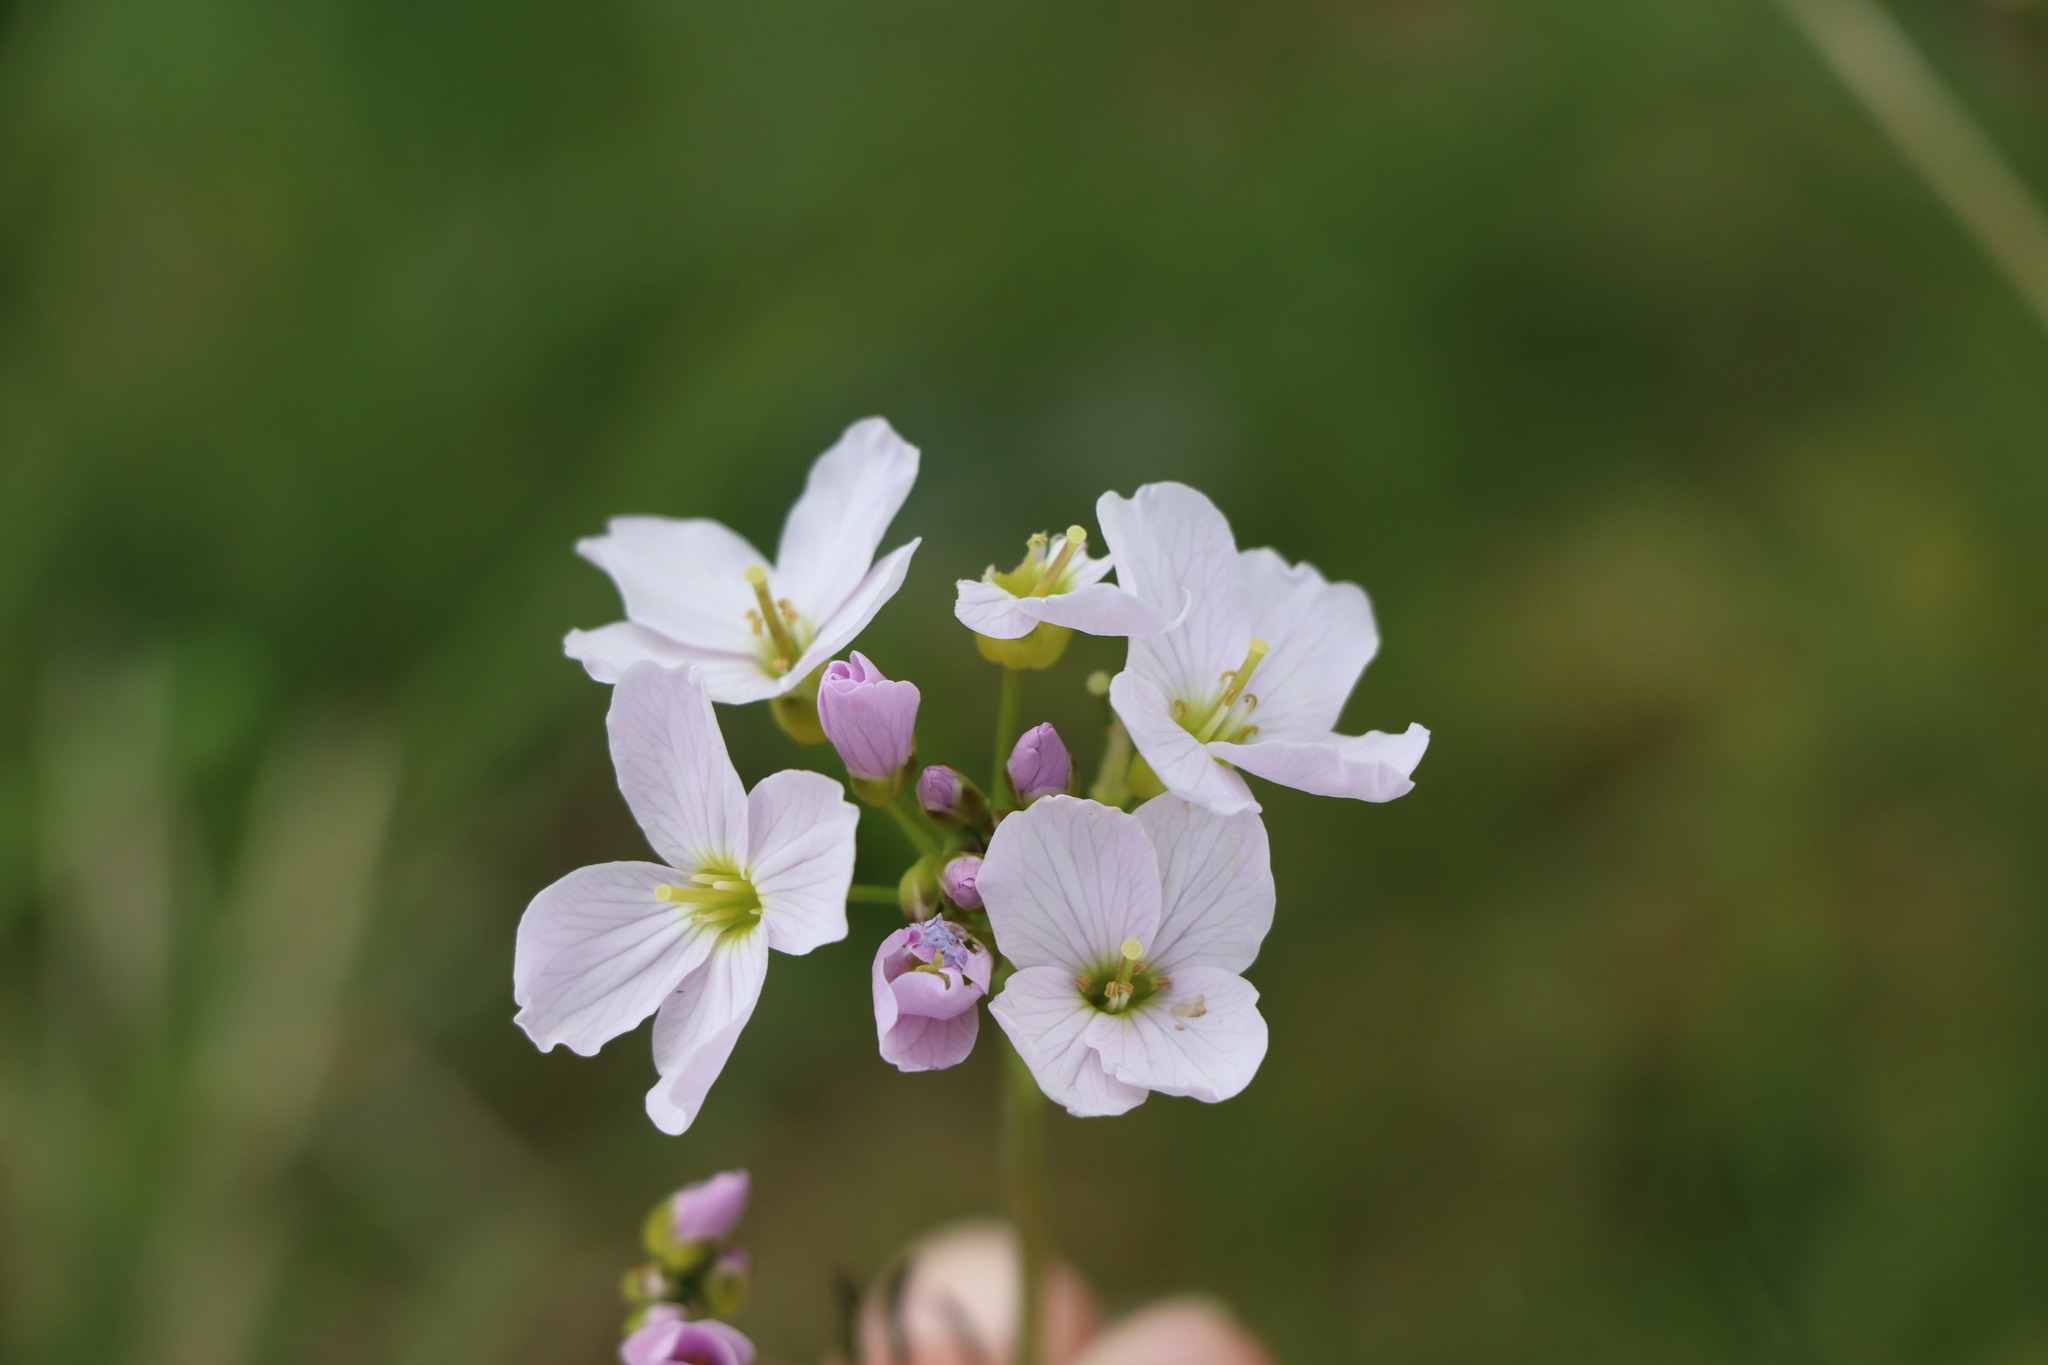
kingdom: Plantae
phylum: Tracheophyta
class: Magnoliopsida
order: Brassicales
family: Brassicaceae
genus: Cardamine
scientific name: Cardamine pratensis
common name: Cuckoo flower
